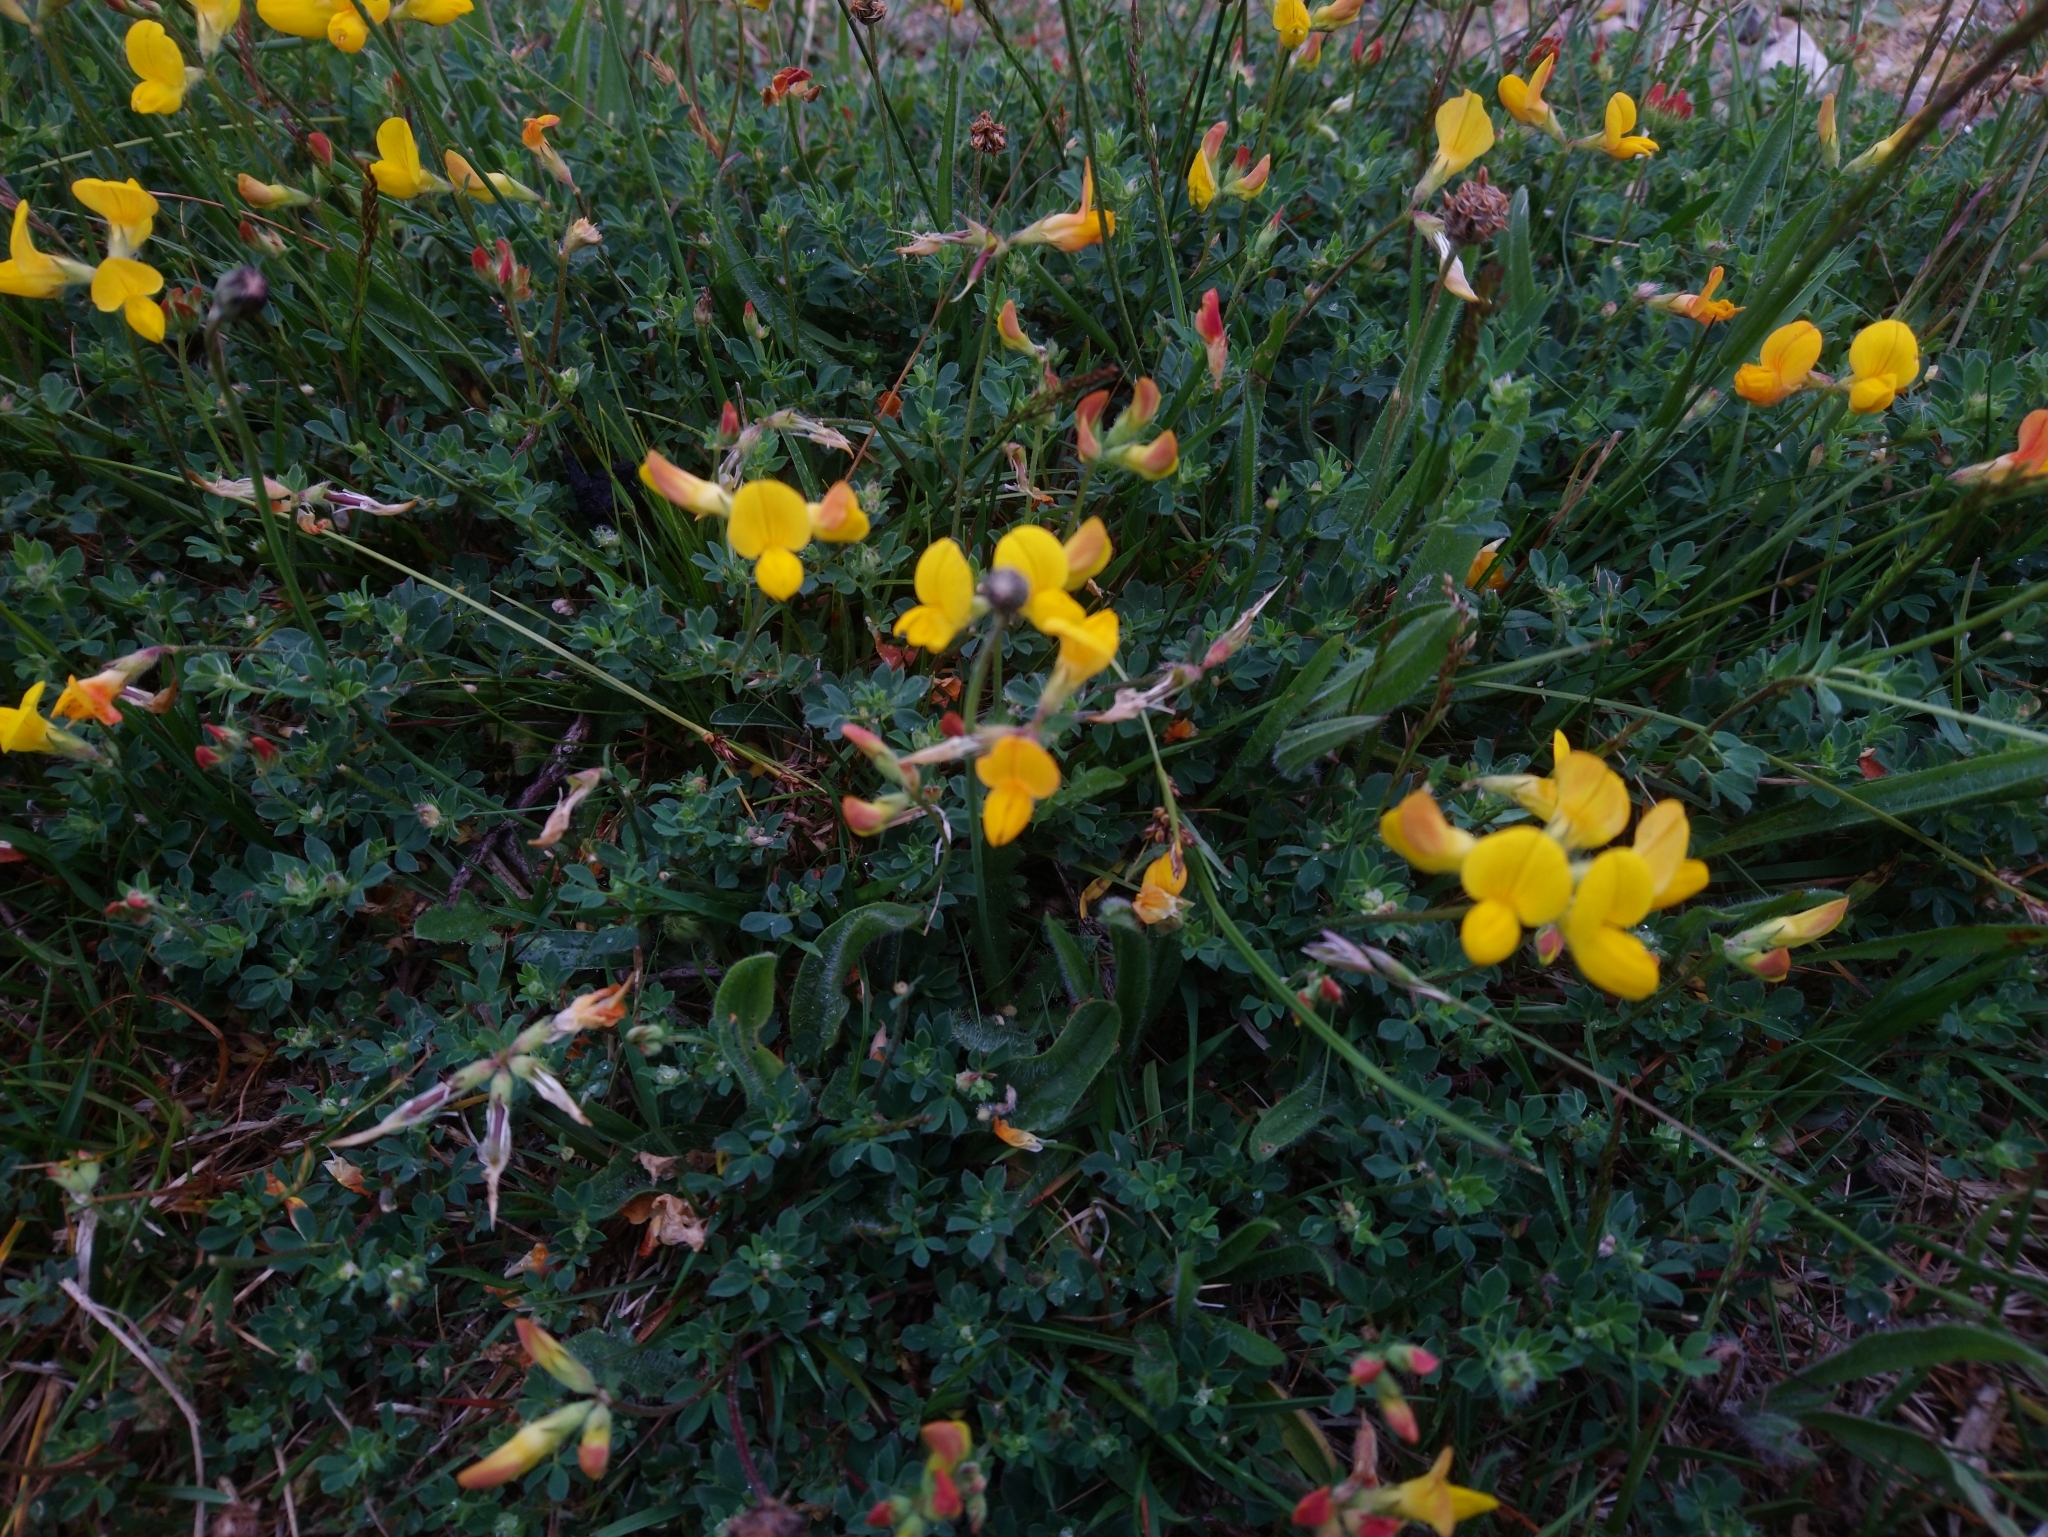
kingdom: Plantae
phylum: Tracheophyta
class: Magnoliopsida
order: Fabales
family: Fabaceae
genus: Lotus
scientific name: Lotus corniculatus
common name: Common bird's-foot-trefoil
